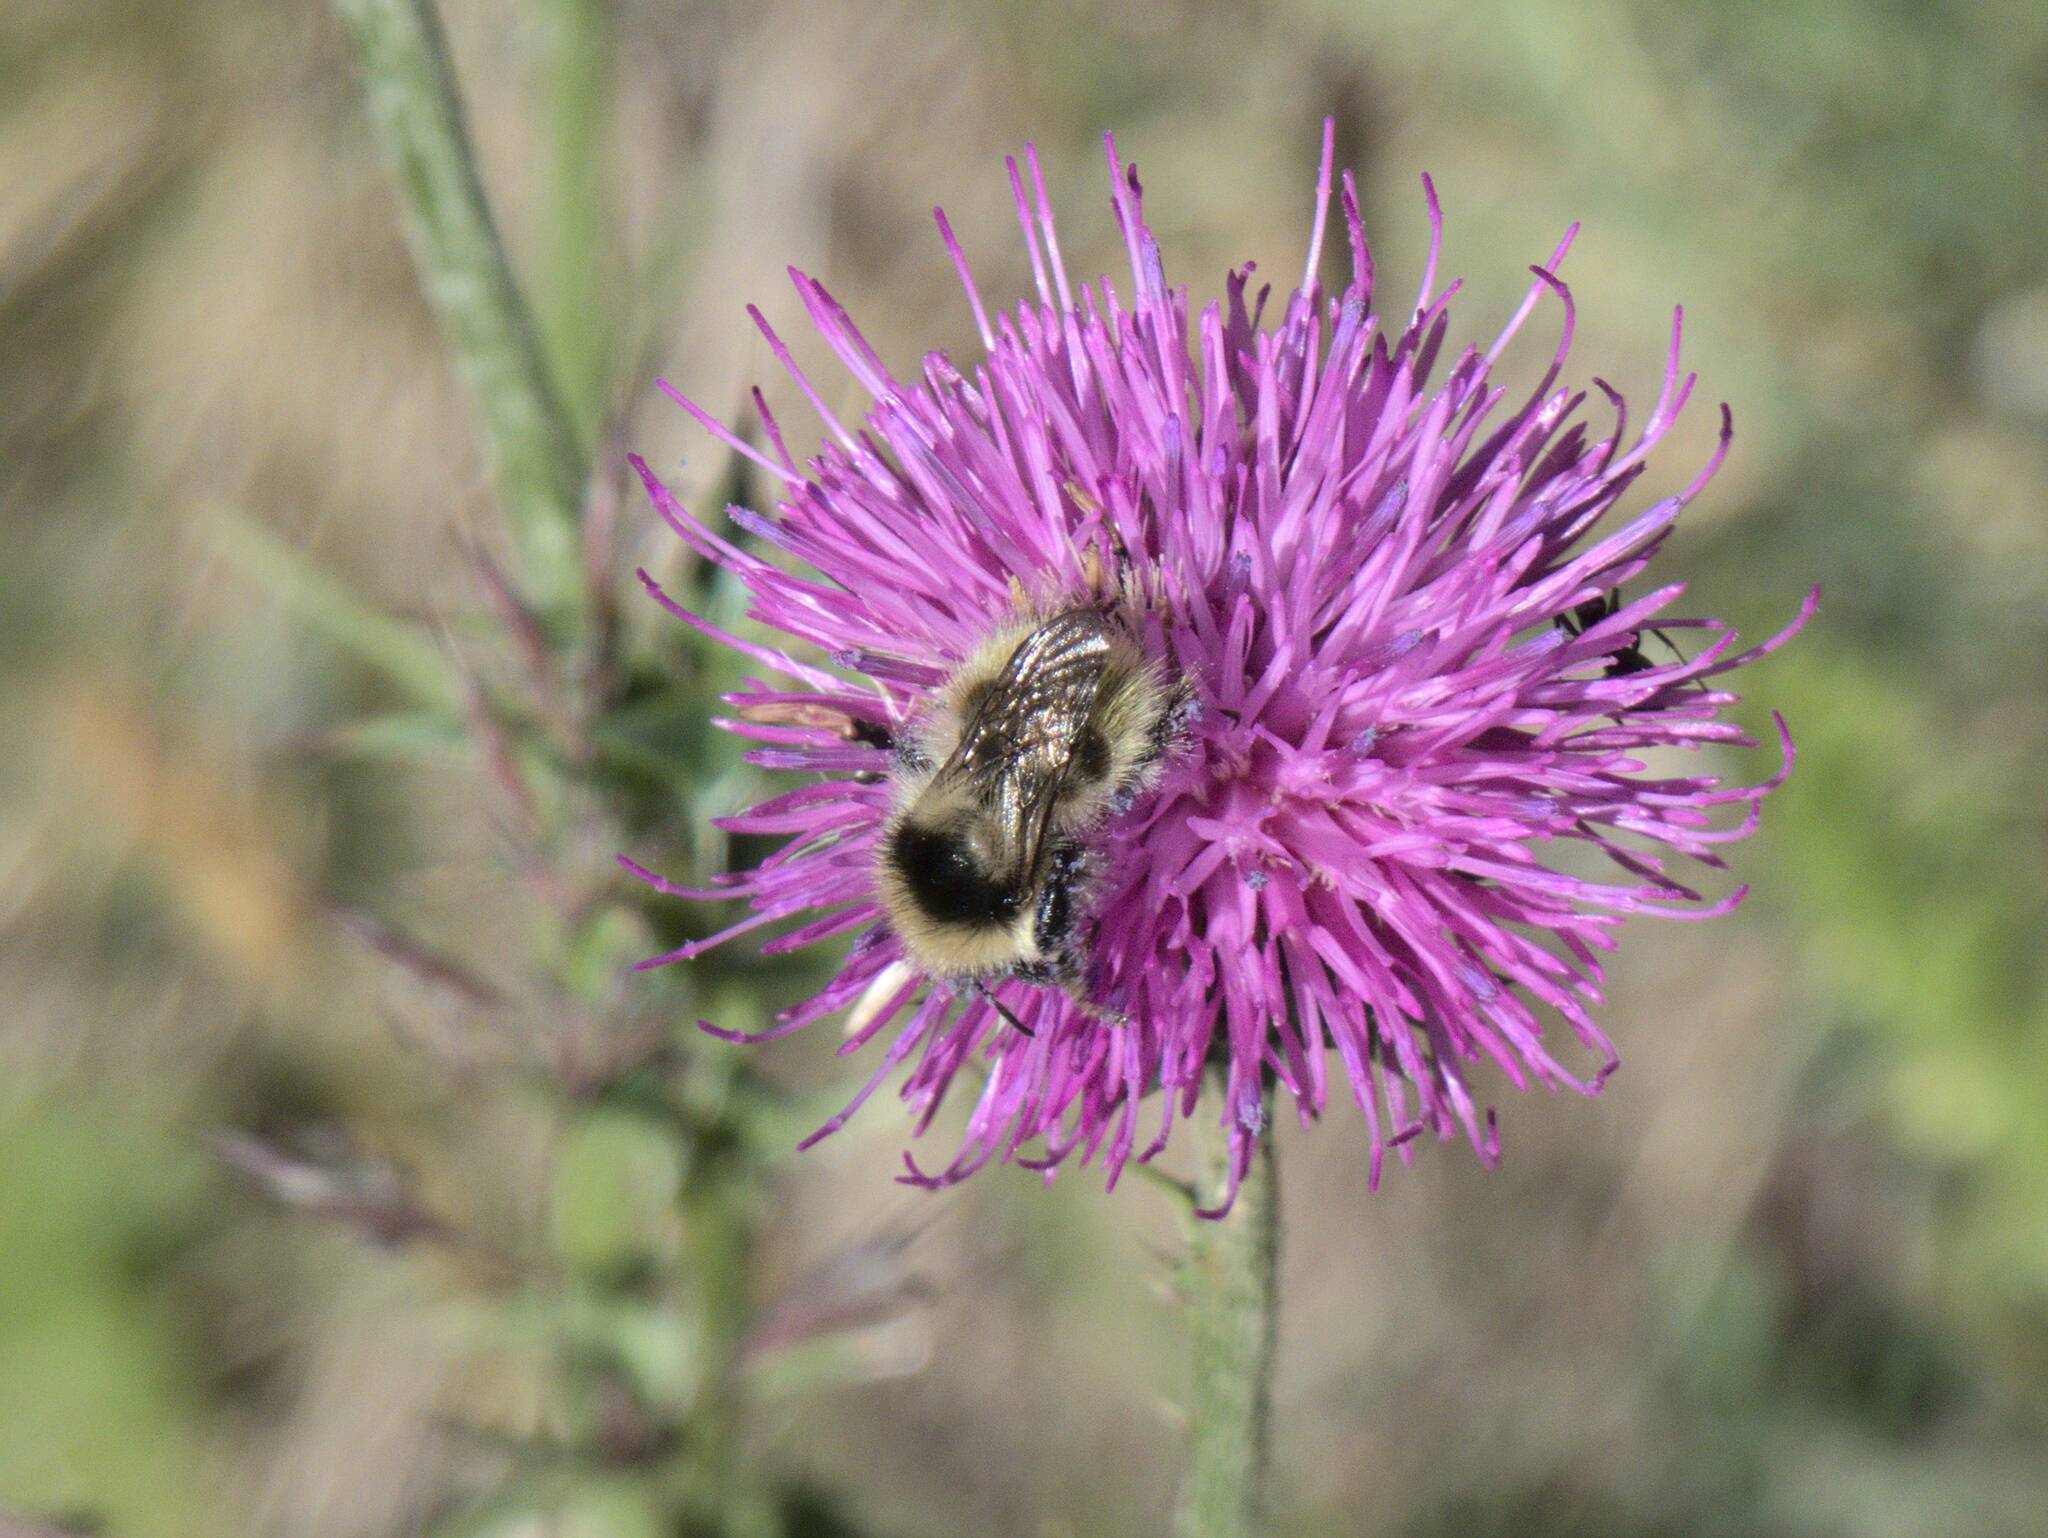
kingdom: Animalia
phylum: Arthropoda
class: Insecta
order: Hymenoptera
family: Apidae
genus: Bombus
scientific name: Bombus mucidus
